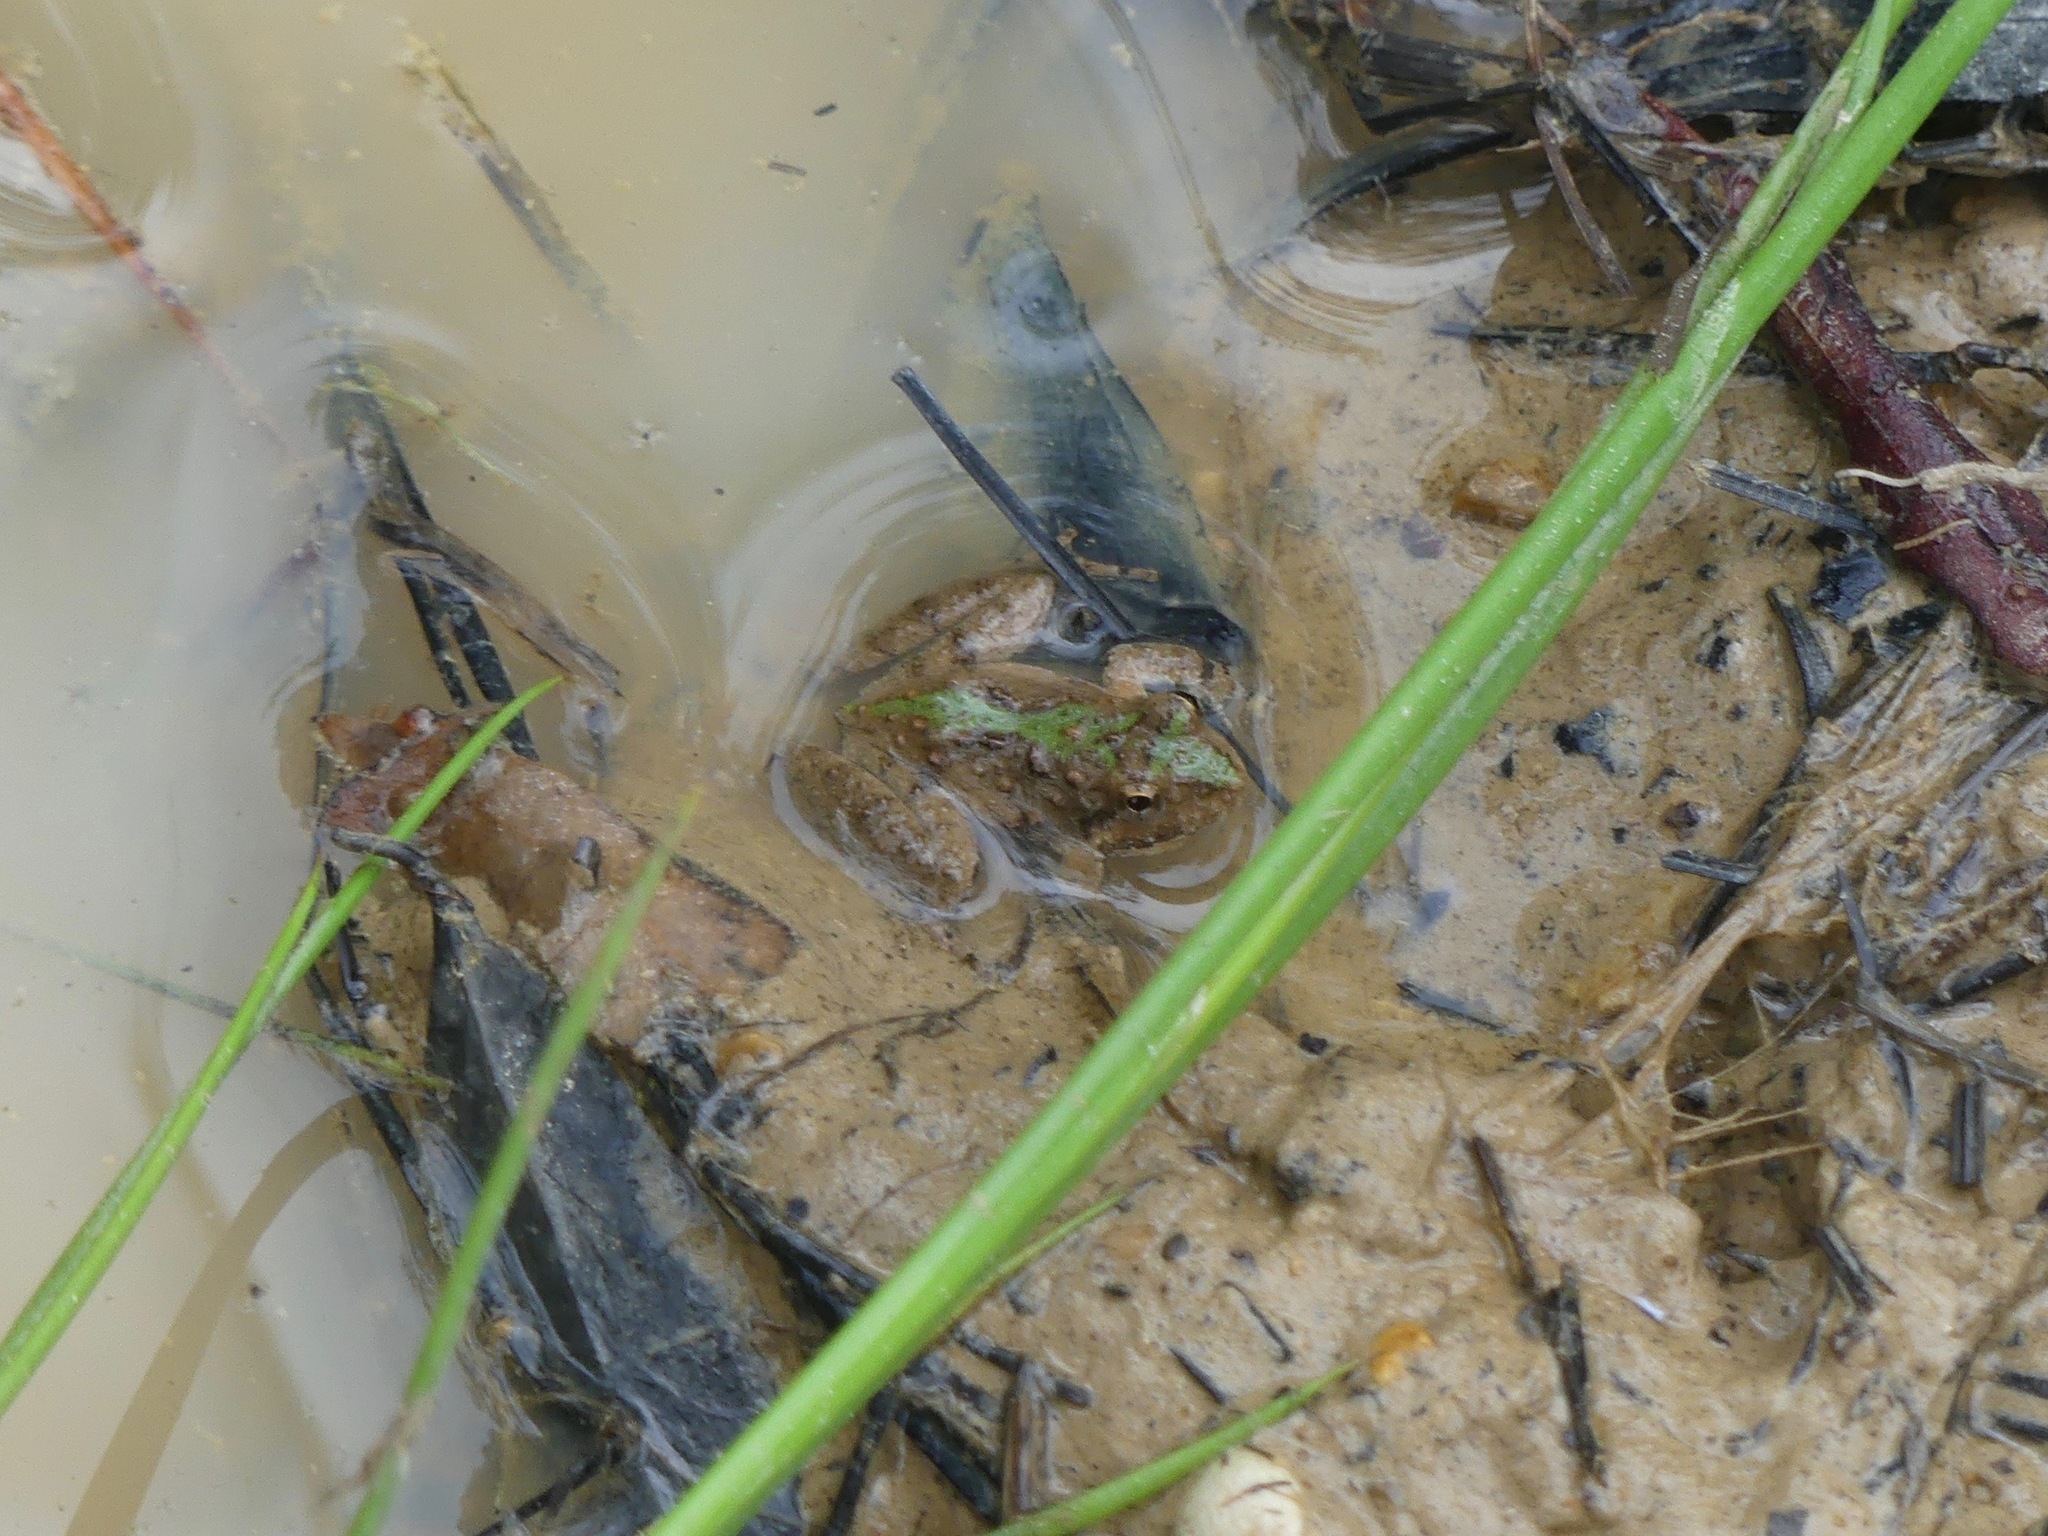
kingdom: Animalia
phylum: Chordata
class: Amphibia
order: Anura
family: Hylidae
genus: Acris
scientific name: Acris blanchardi
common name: Blanchard's cricket frog
